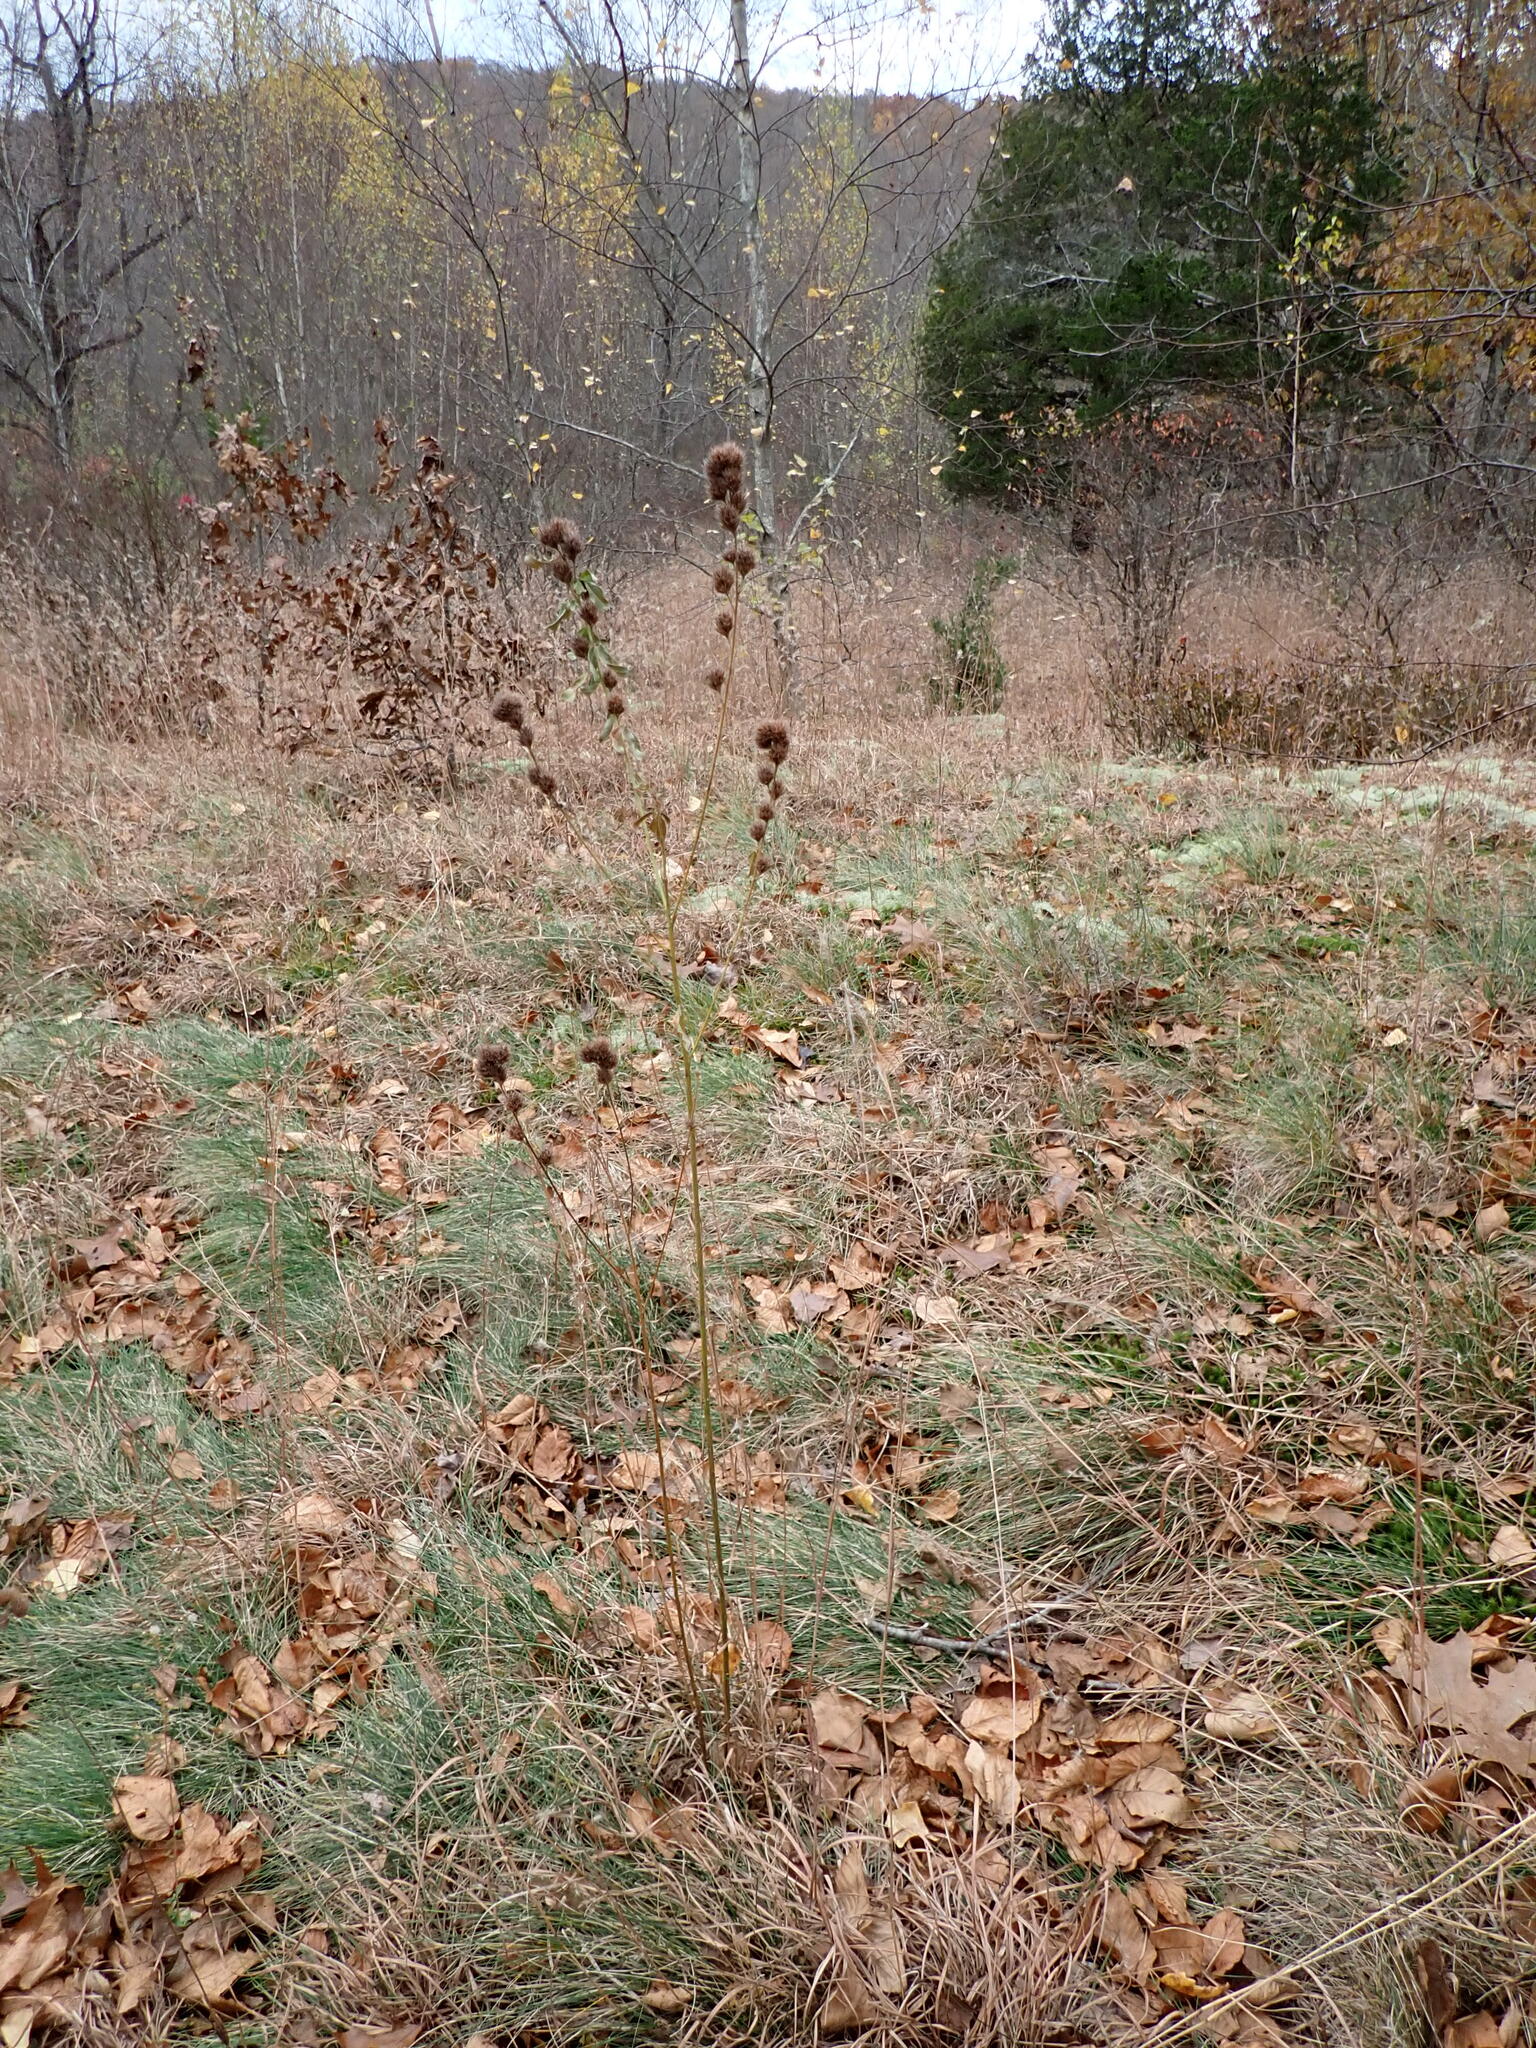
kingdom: Plantae
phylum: Tracheophyta
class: Magnoliopsida
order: Fabales
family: Fabaceae
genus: Lespedeza
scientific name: Lespedeza capitata
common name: Dusty clover
